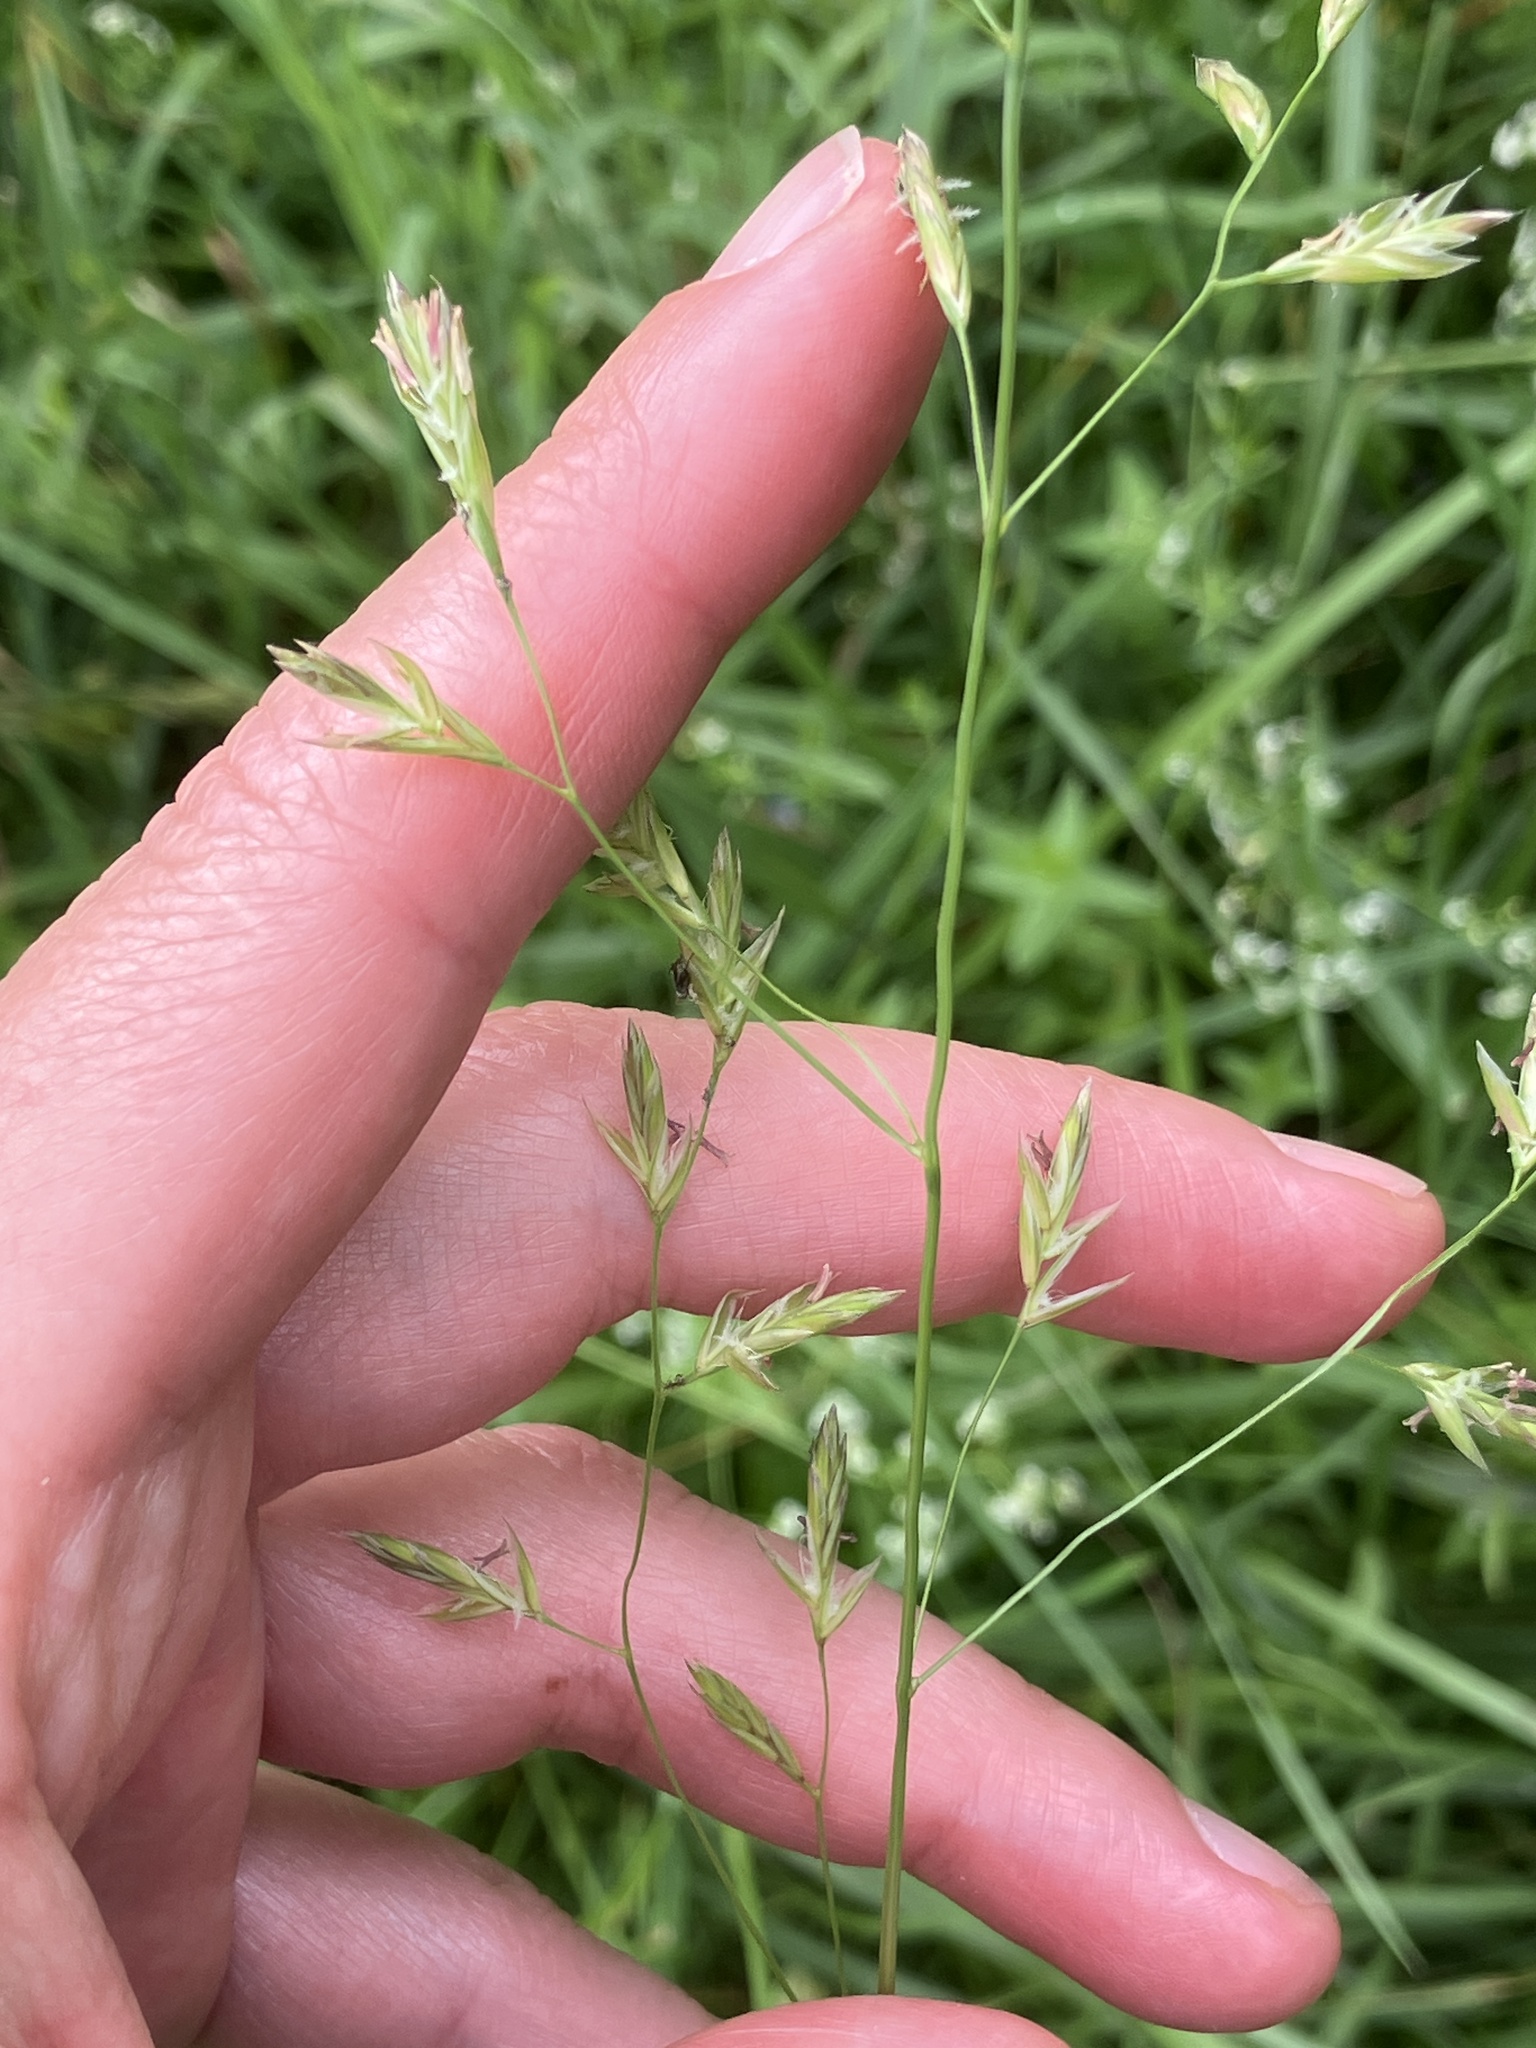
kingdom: Plantae
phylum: Tracheophyta
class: Liliopsida
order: Poales
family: Poaceae
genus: Lolium
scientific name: Lolium arundinaceum
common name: Reed fescue
